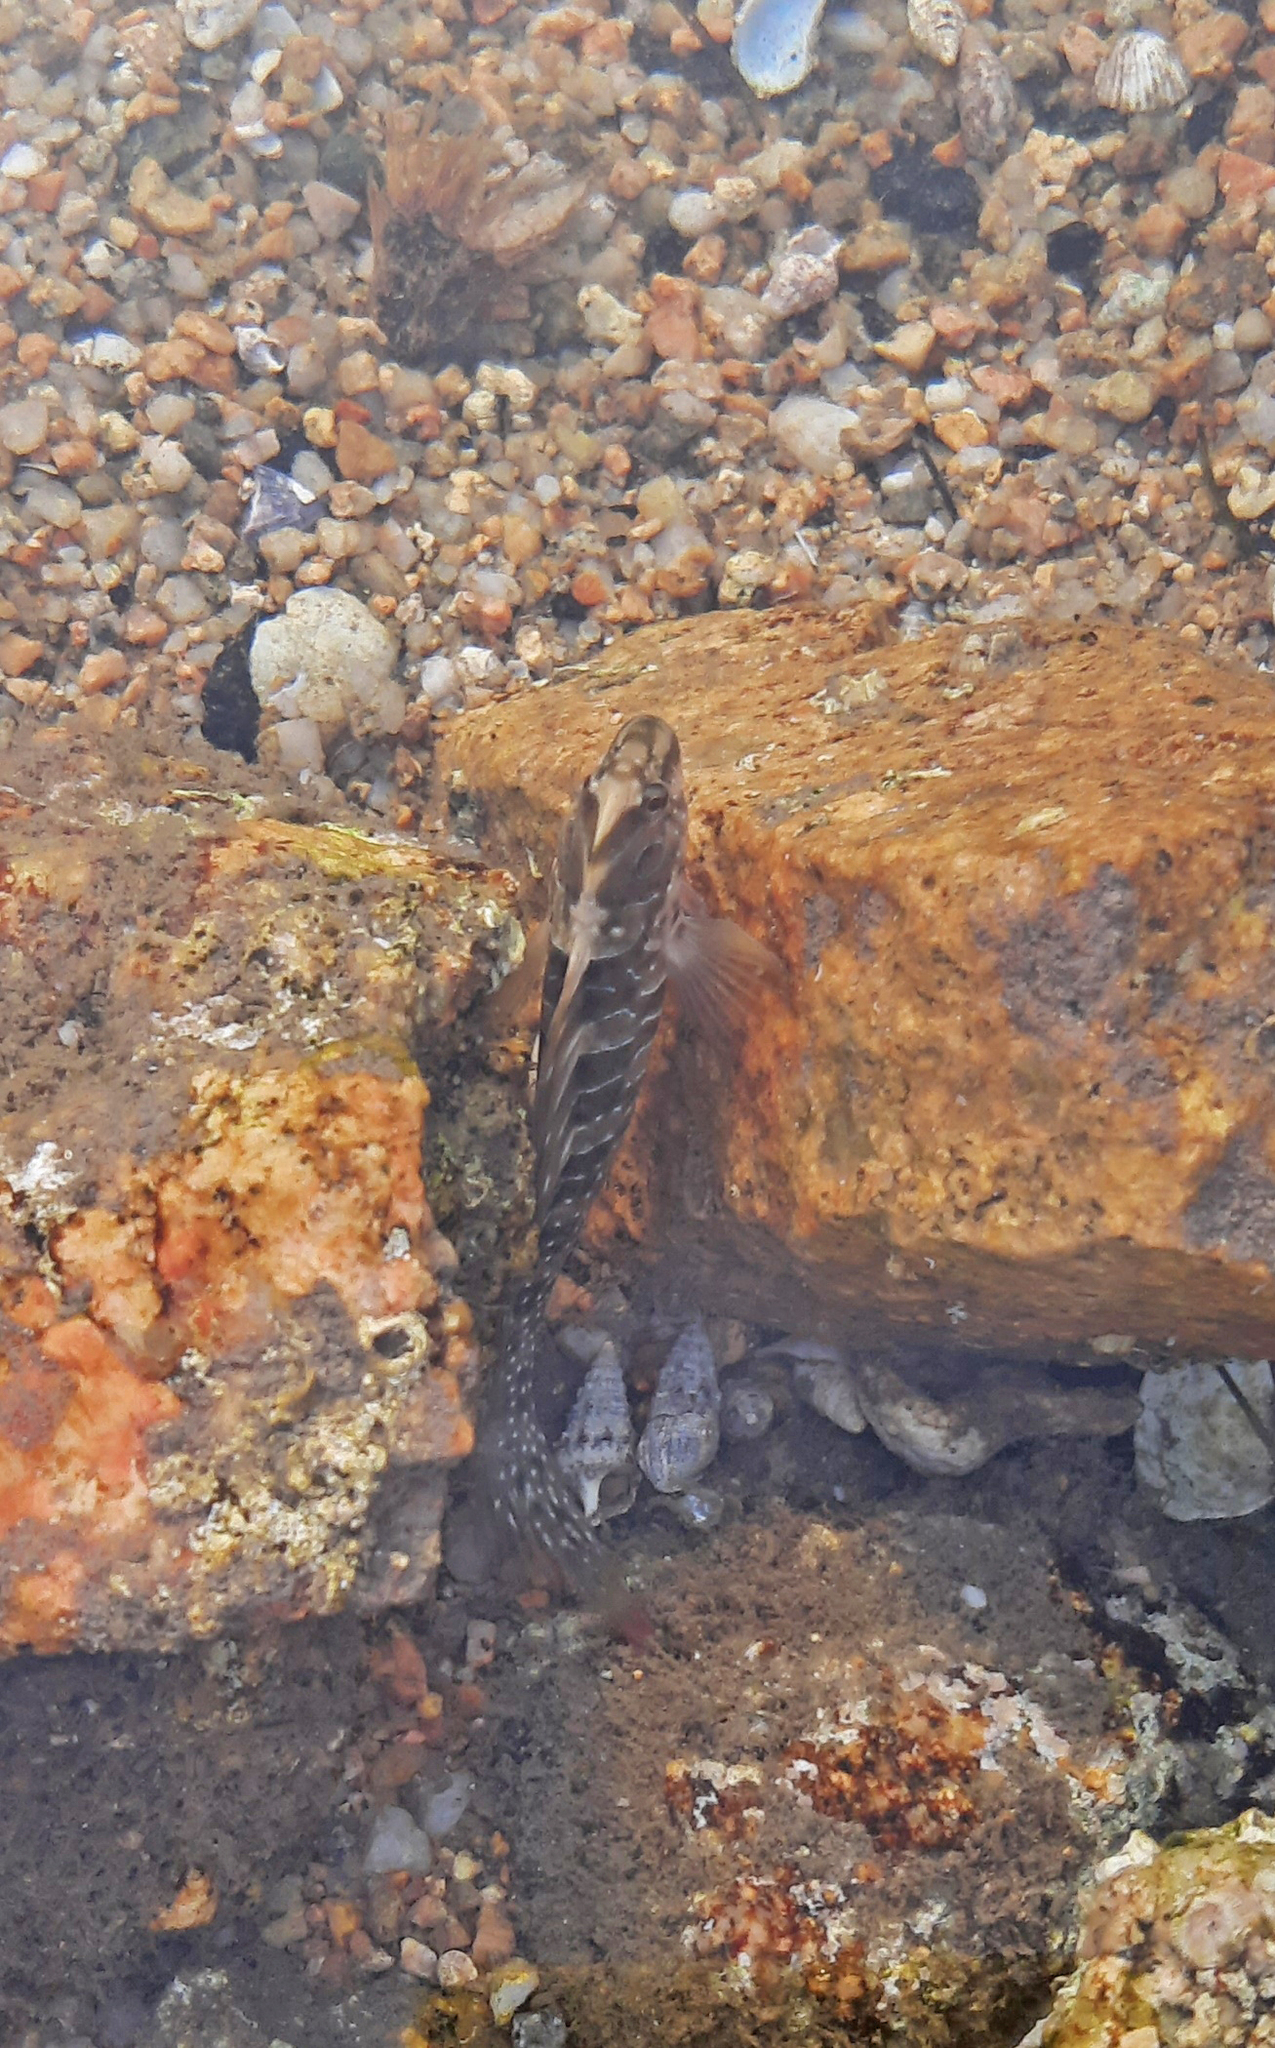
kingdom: Animalia
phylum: Chordata
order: Perciformes
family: Blenniidae
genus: Salaria
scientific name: Salaria pavo
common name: Peacock blenny
